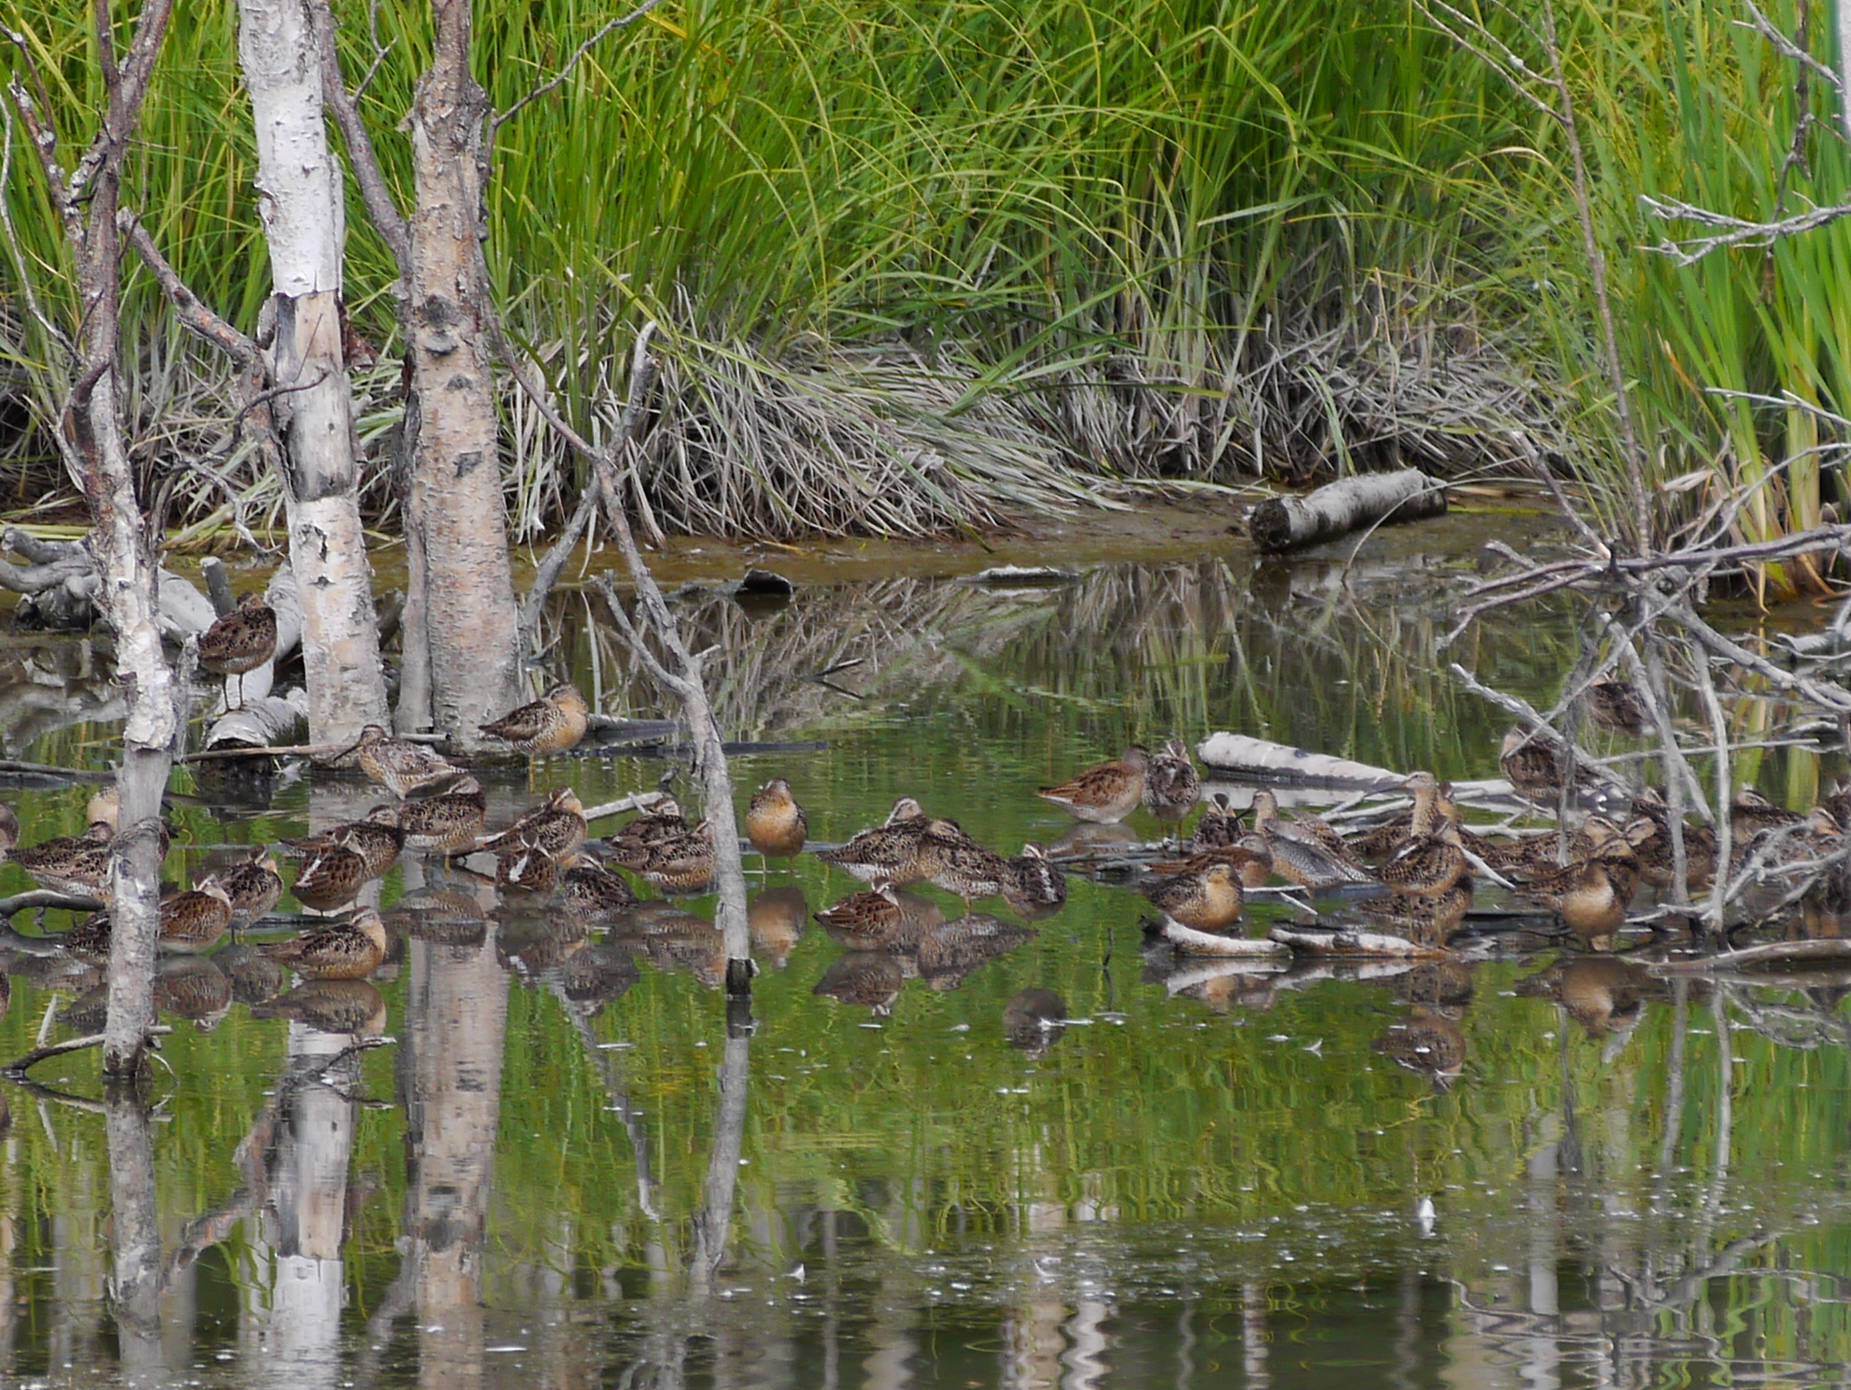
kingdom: Animalia
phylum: Chordata
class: Aves
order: Charadriiformes
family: Scolopacidae
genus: Limnodromus
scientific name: Limnodromus griseus
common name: Short-billed dowitcher
